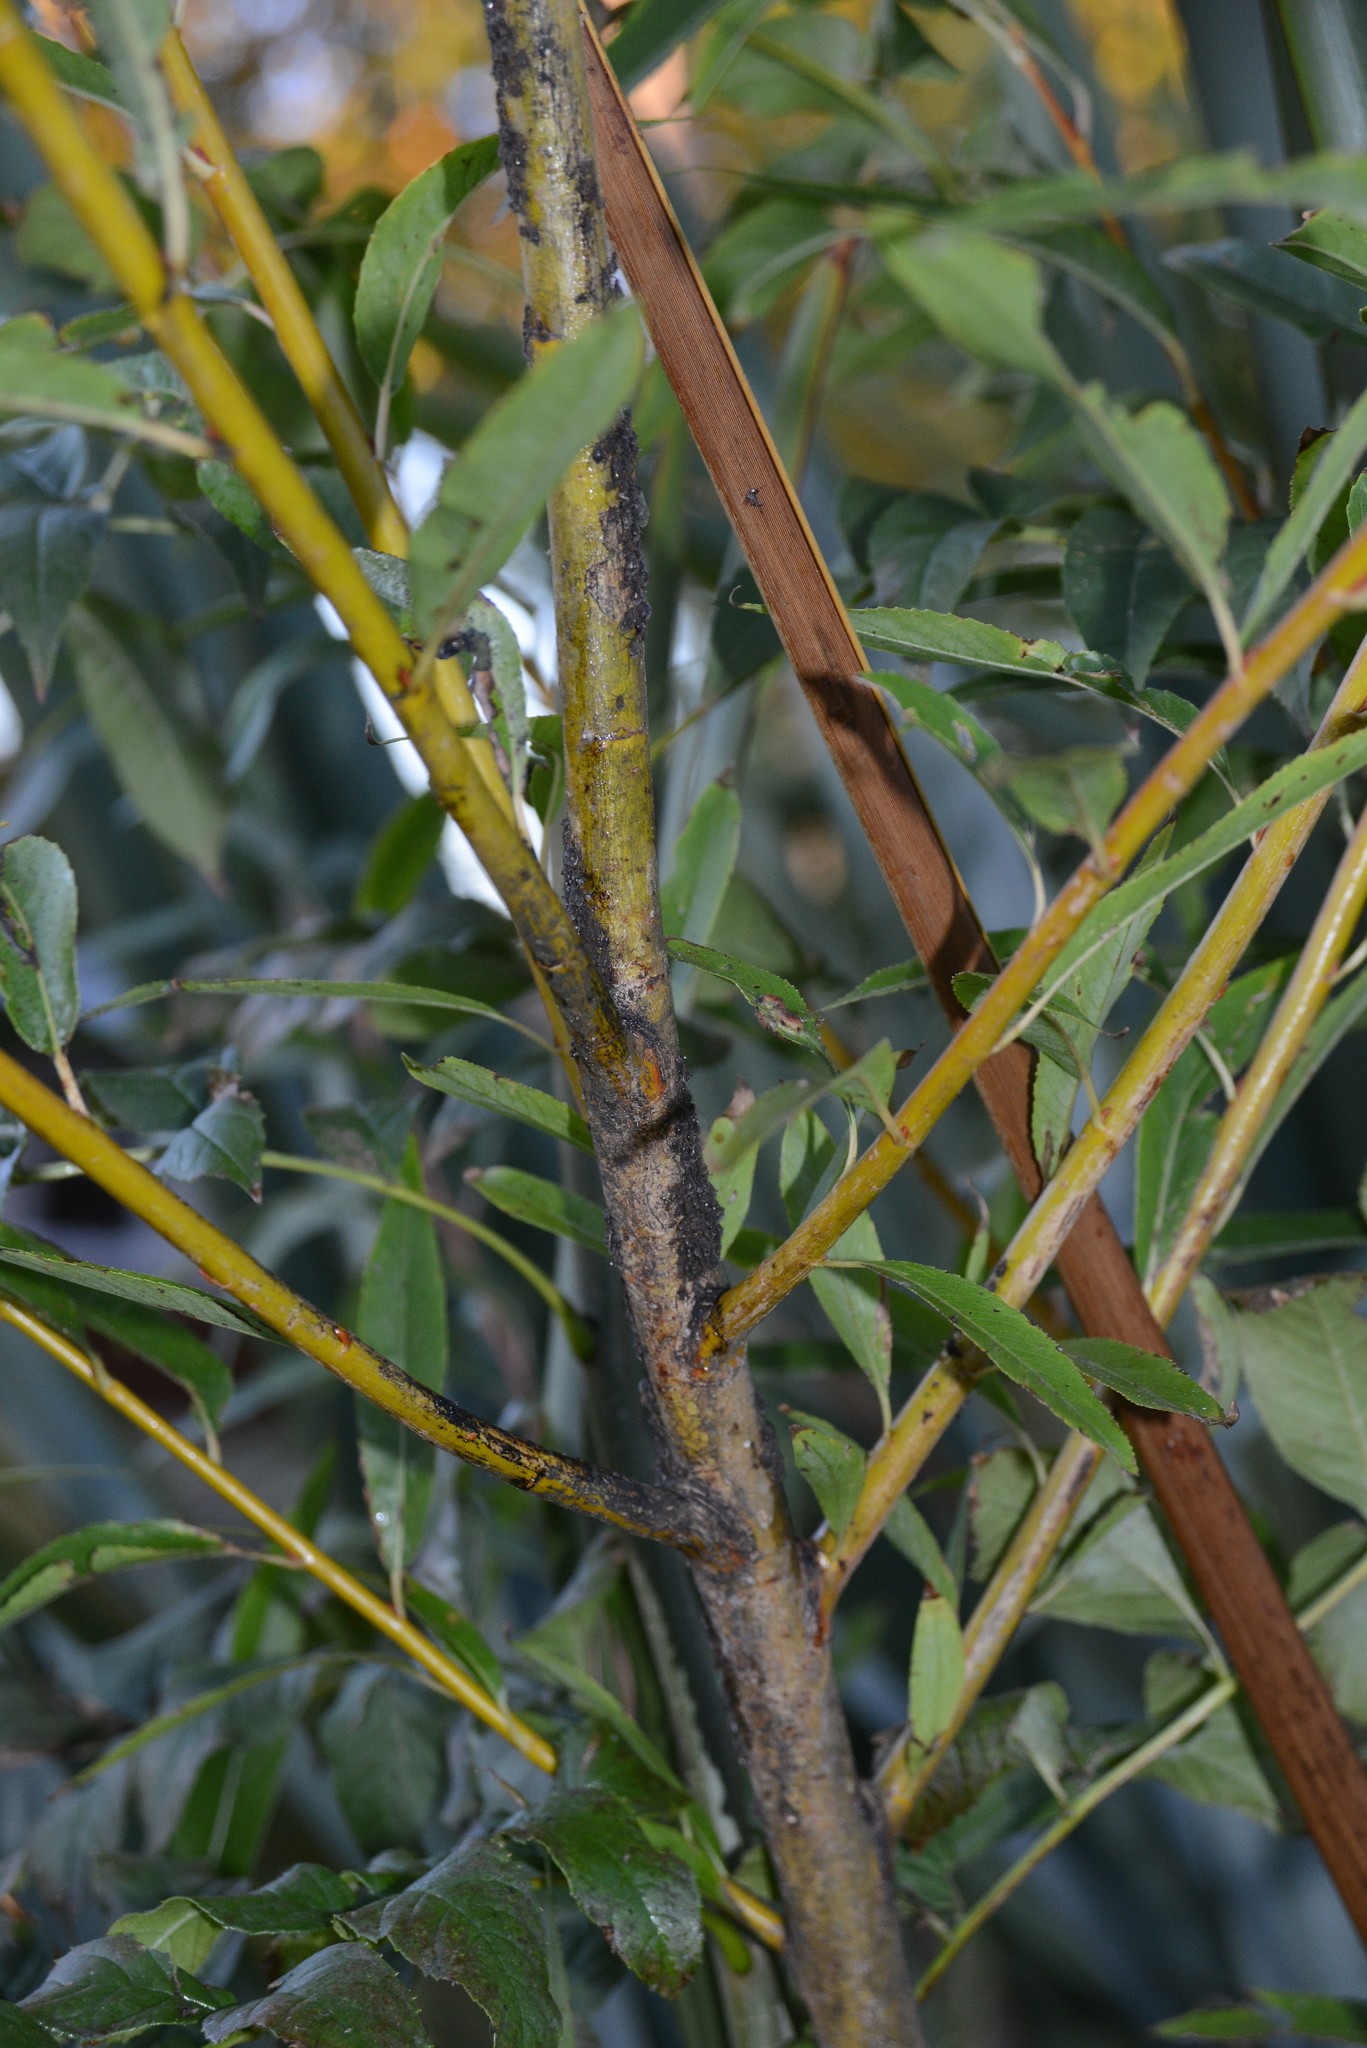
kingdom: Animalia
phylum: Arthropoda
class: Insecta
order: Hemiptera
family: Aphididae
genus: Tuberolachnus
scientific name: Tuberolachnus salignus
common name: Giant willow aphid
